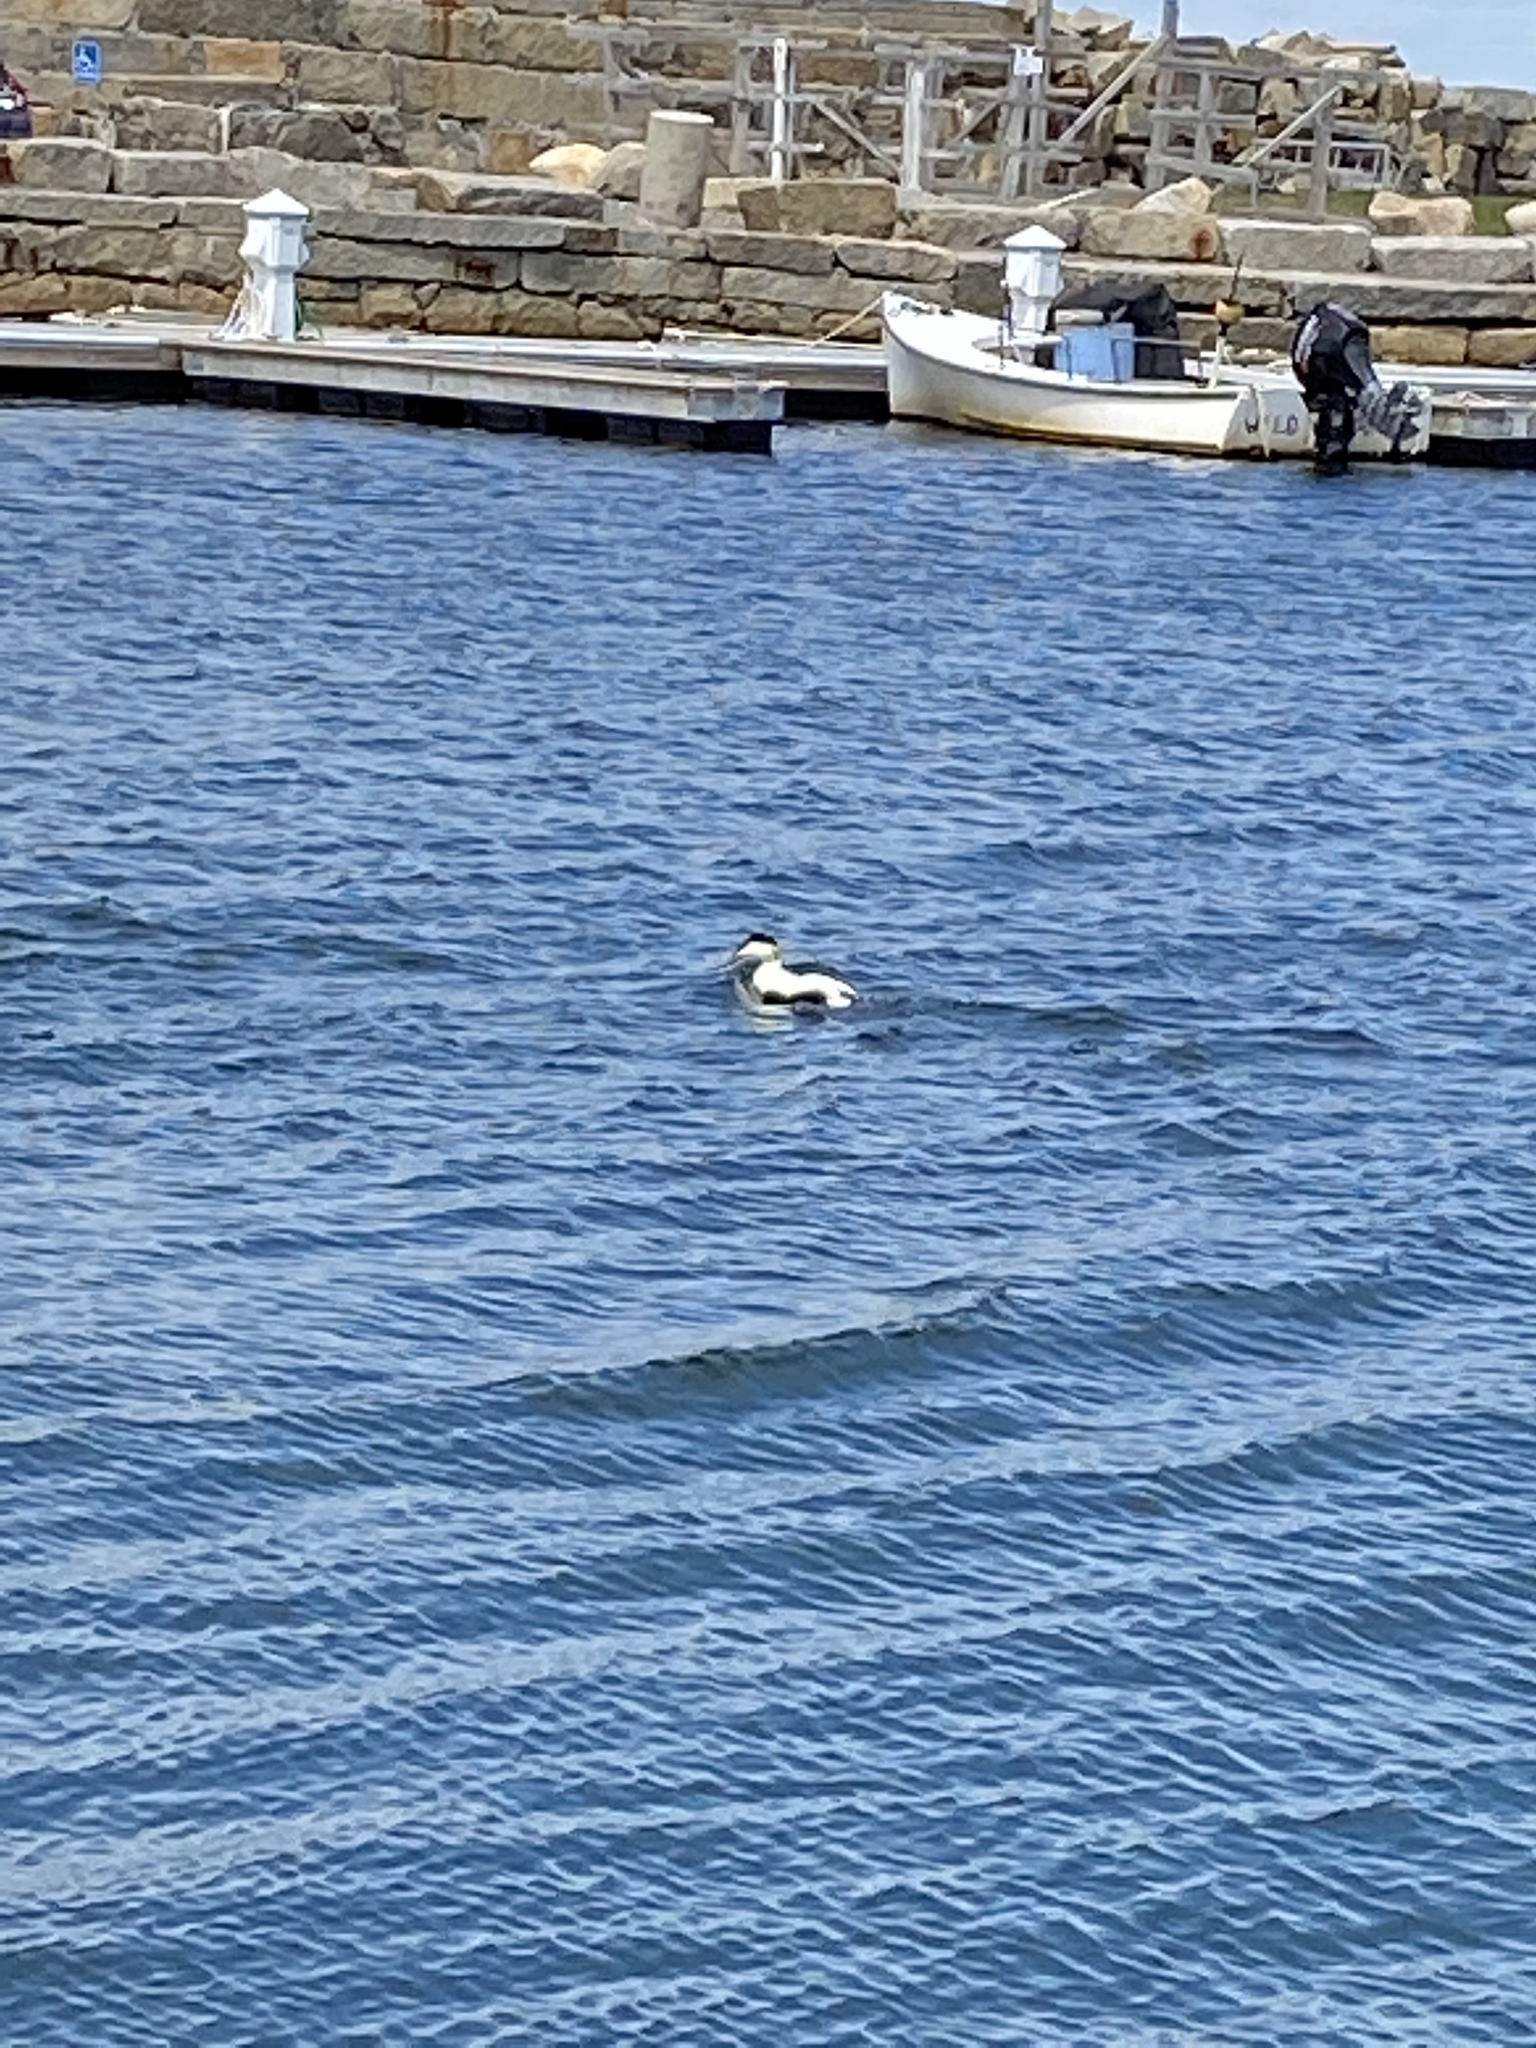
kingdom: Animalia
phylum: Chordata
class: Aves
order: Anseriformes
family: Anatidae
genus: Somateria
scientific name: Somateria mollissima
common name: Common eider
